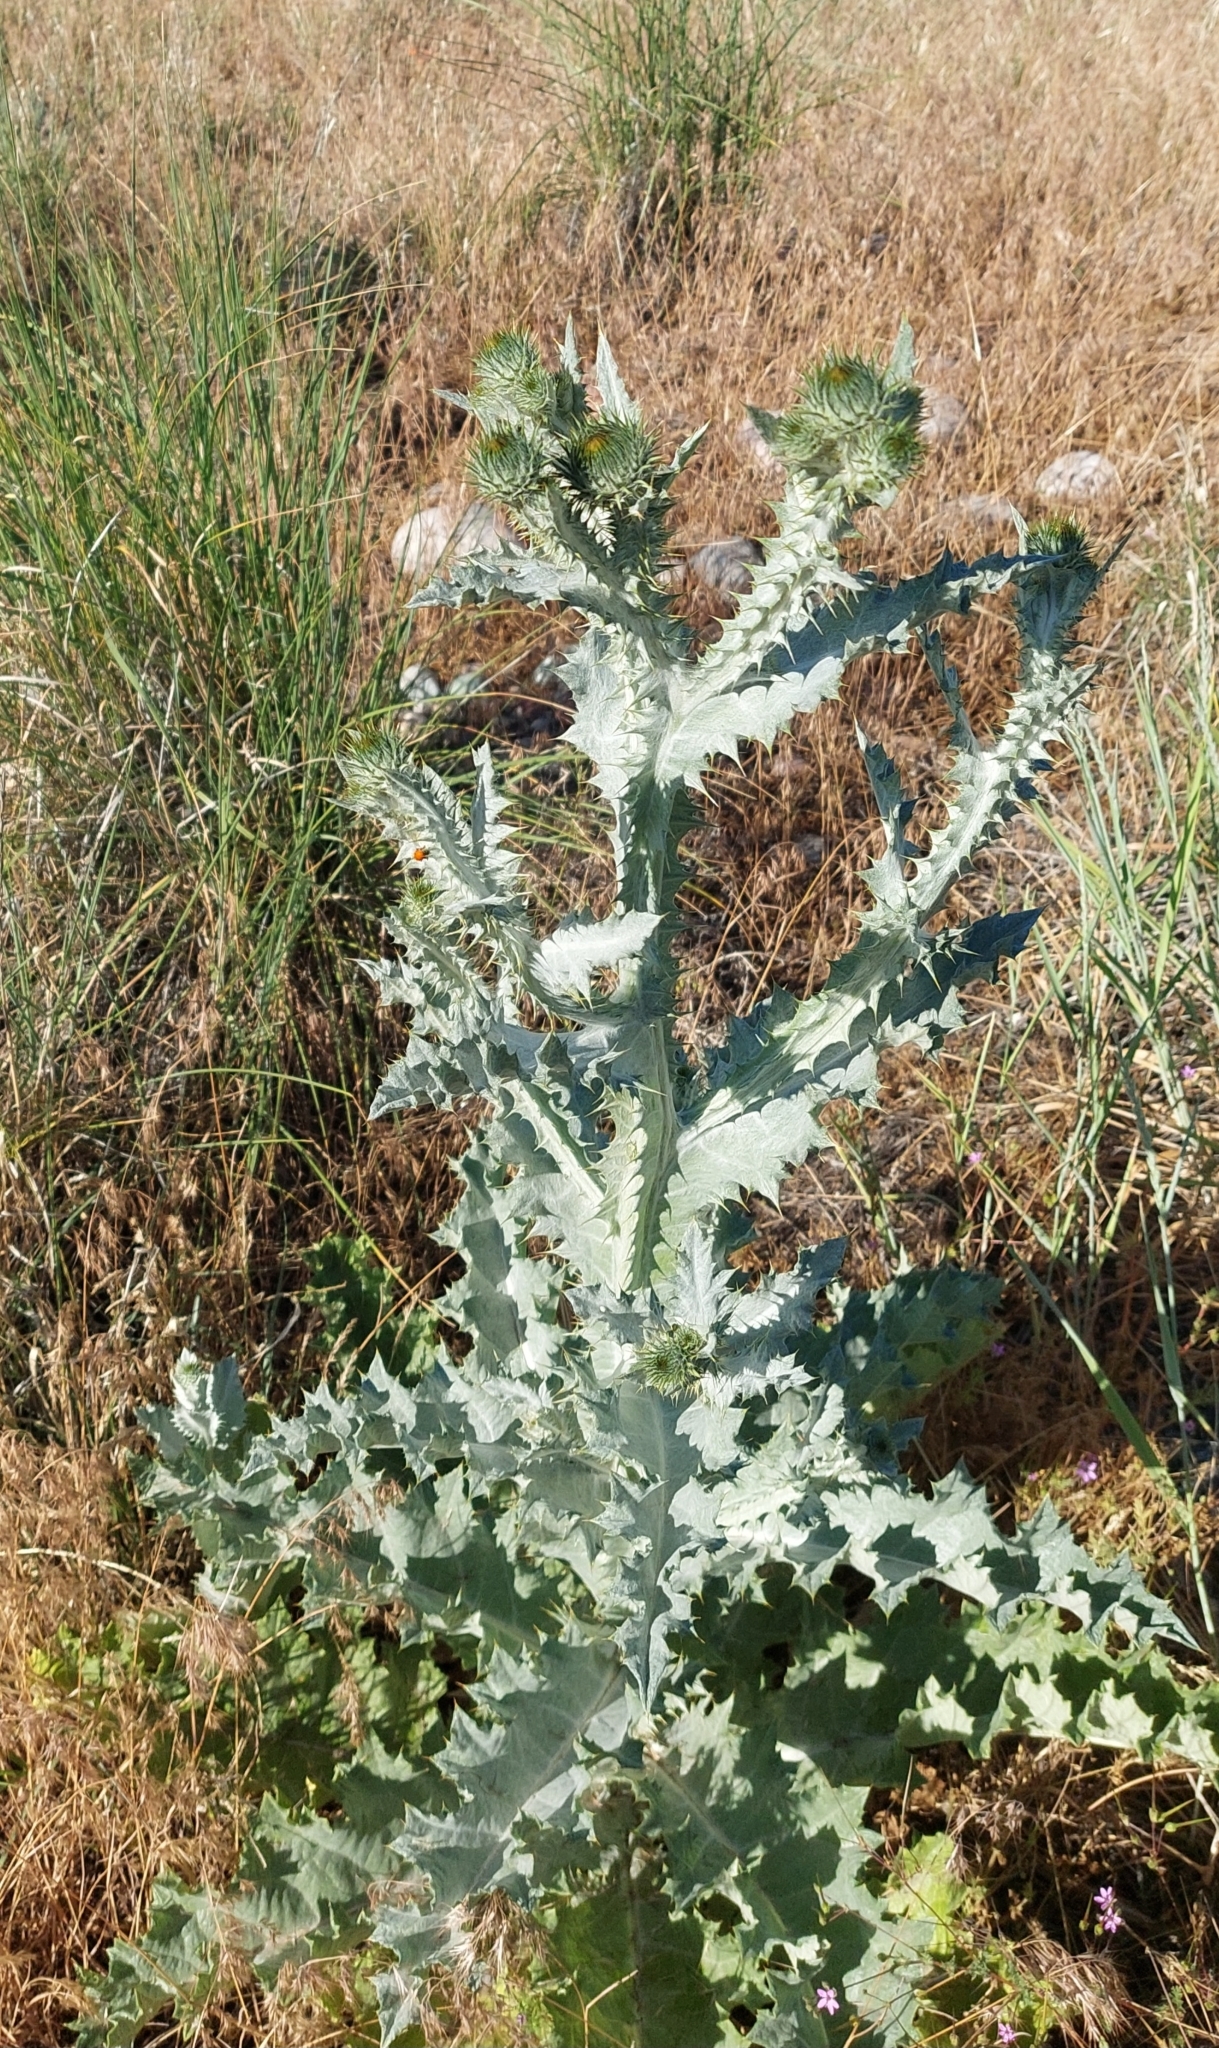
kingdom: Plantae
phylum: Tracheophyta
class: Magnoliopsida
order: Asterales
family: Asteraceae
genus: Onopordum
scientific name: Onopordum acanthium
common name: Scotch thistle
